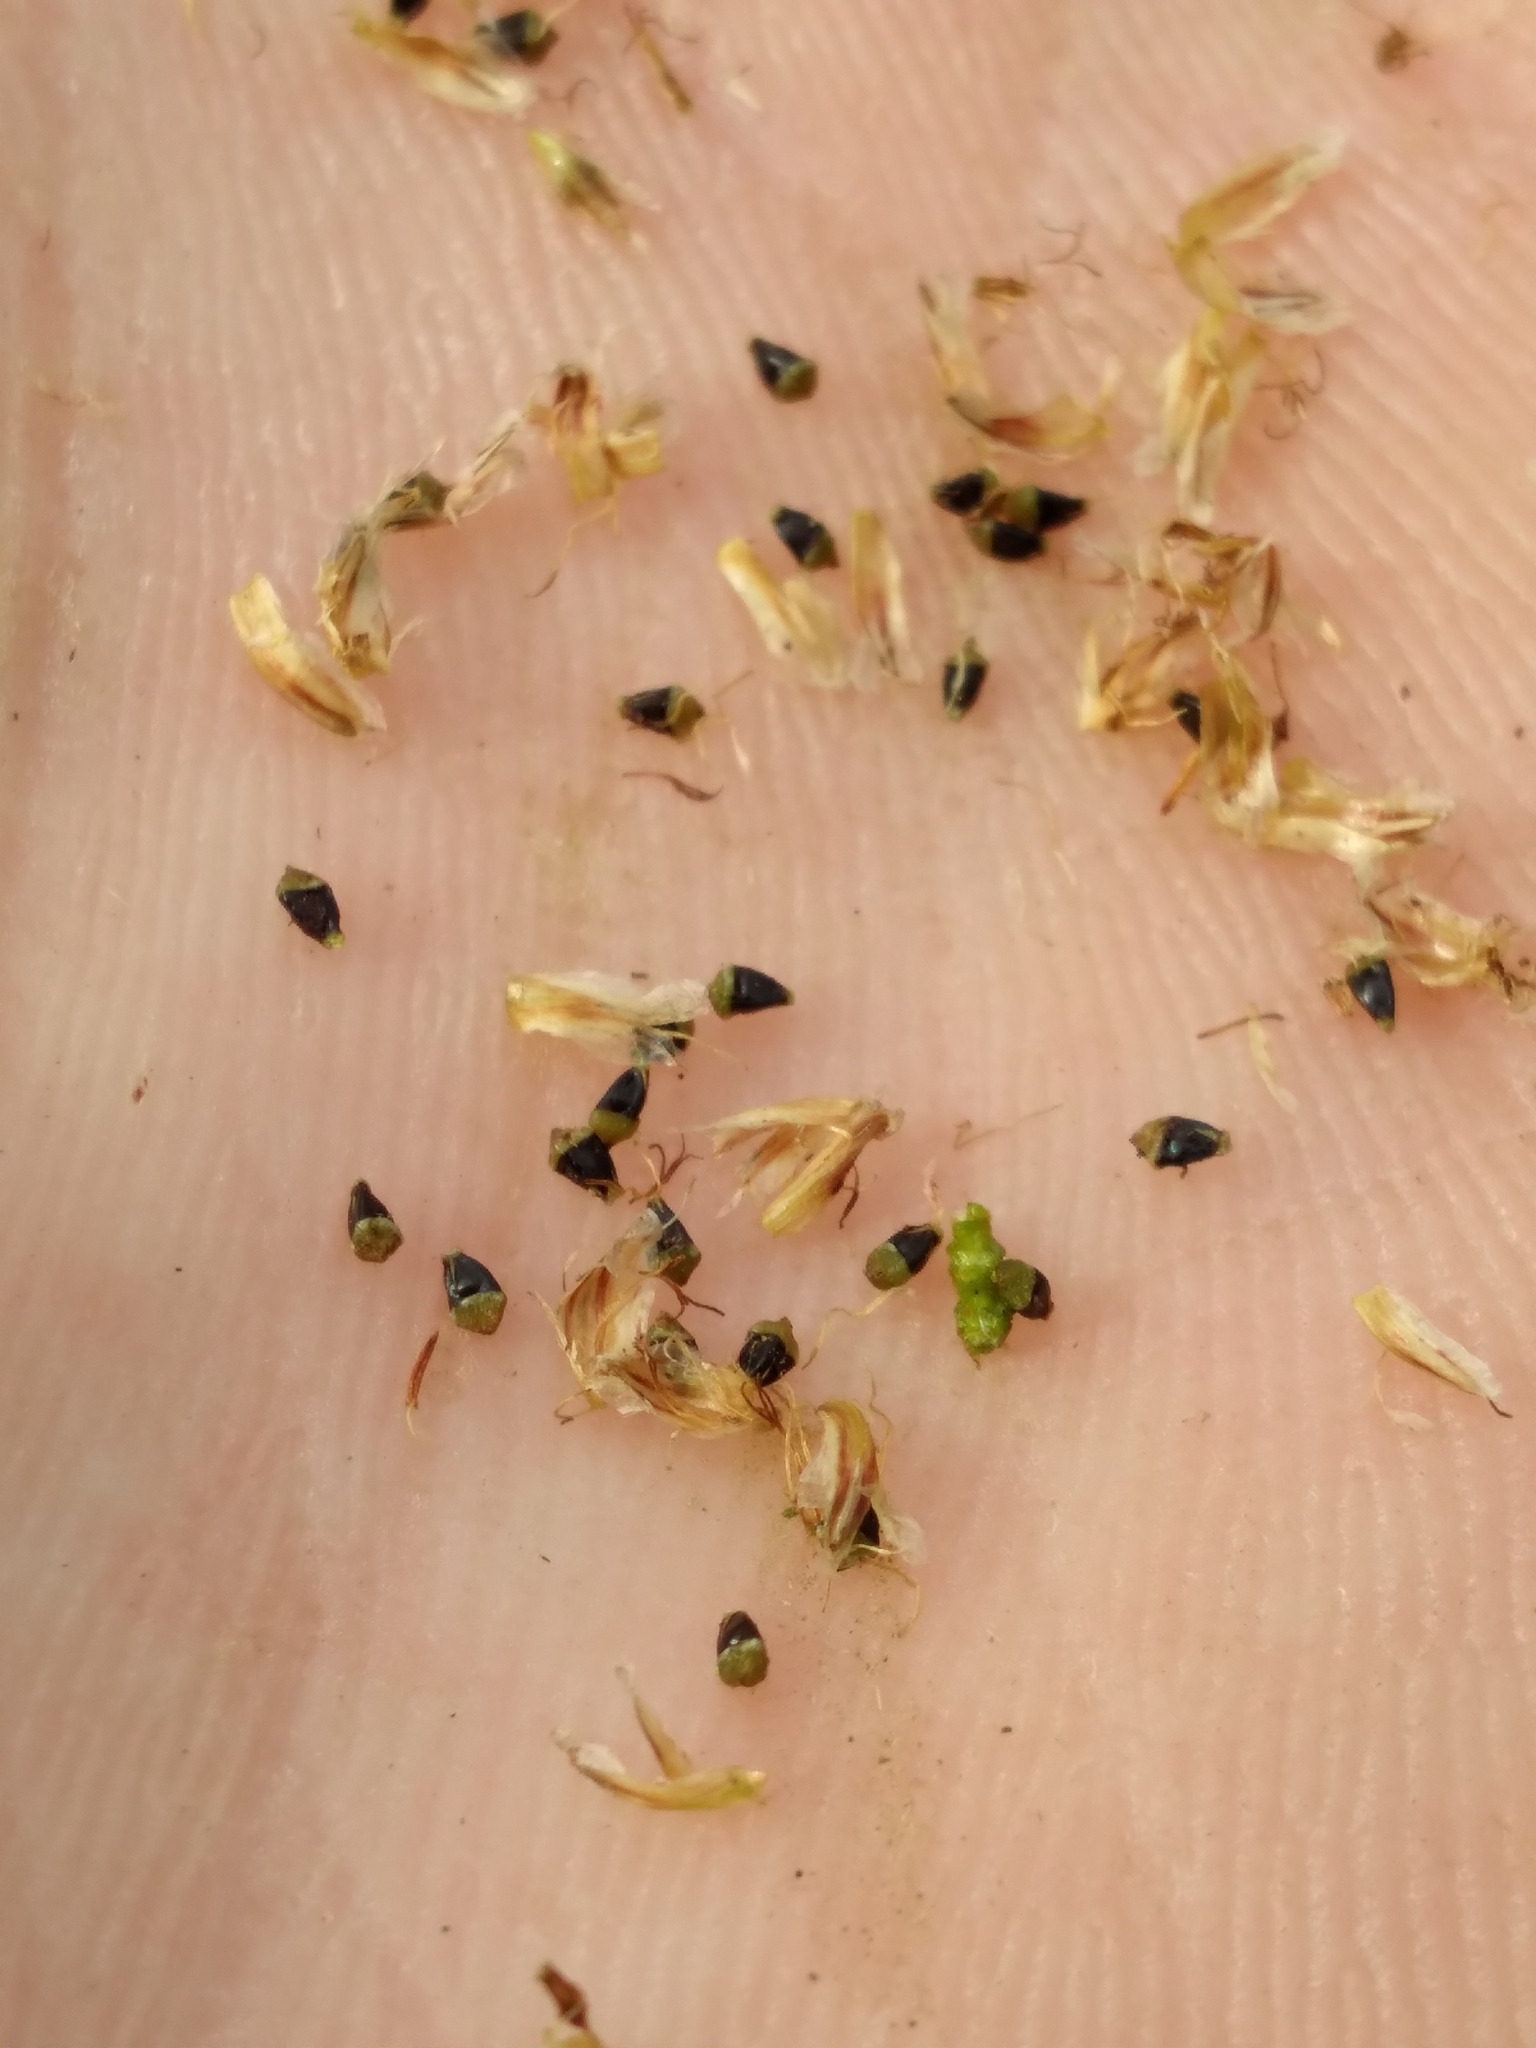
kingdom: Plantae
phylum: Tracheophyta
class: Liliopsida
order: Poales
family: Cyperaceae
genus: Eleocharis
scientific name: Eleocharis melanocarpa
